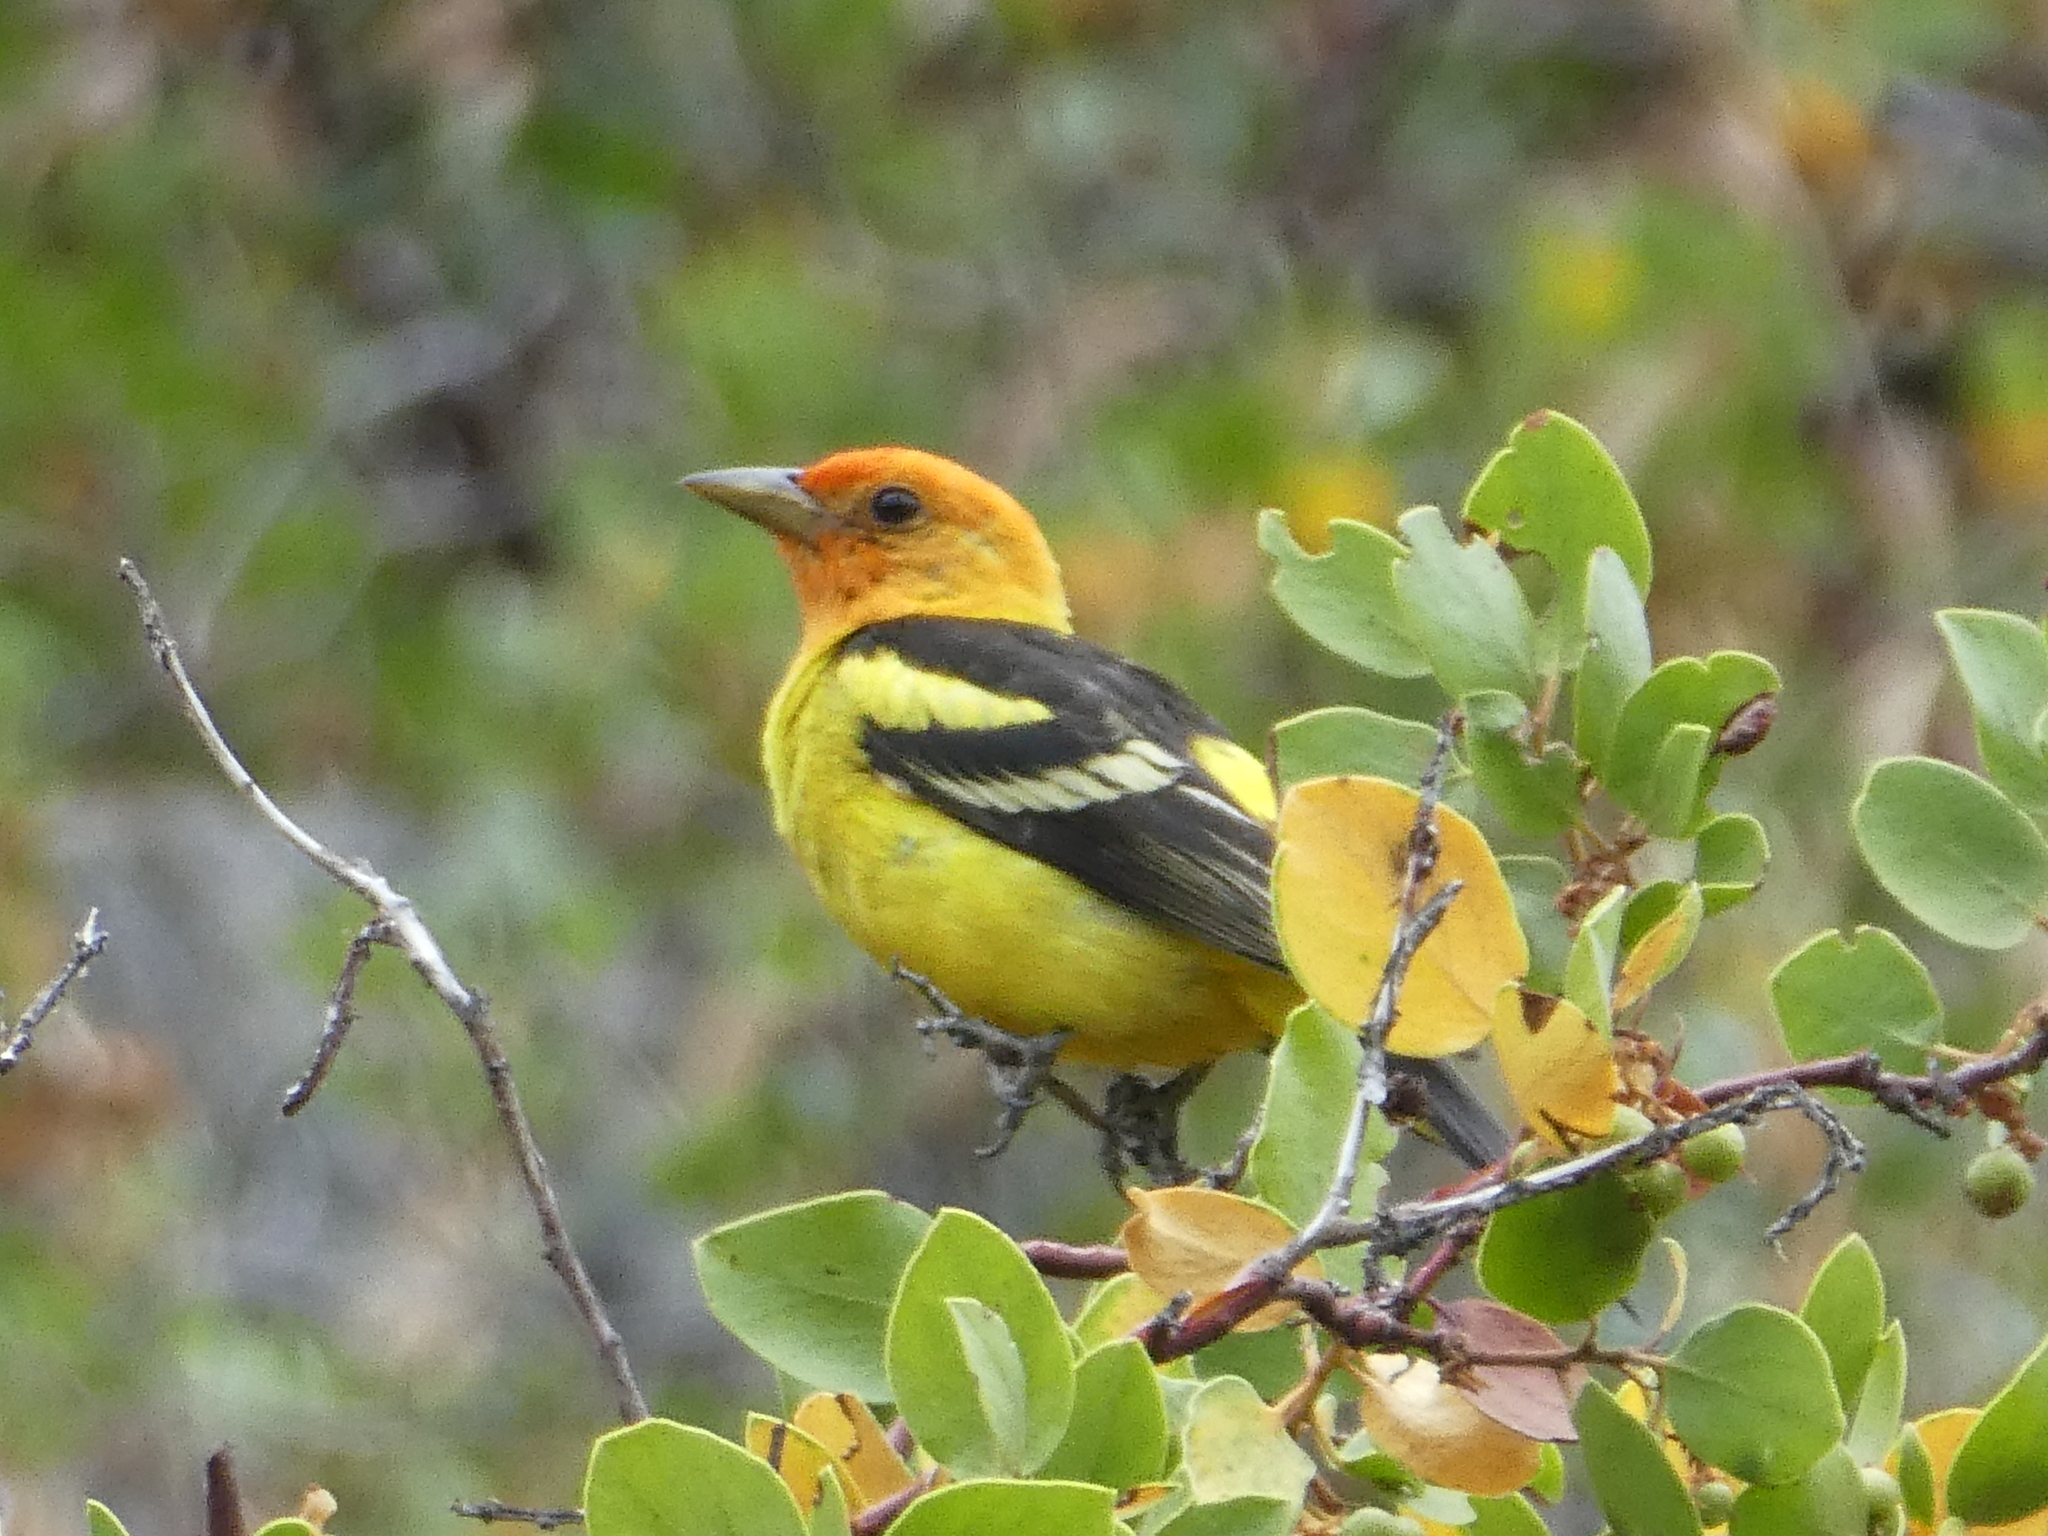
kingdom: Animalia
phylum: Chordata
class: Aves
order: Passeriformes
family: Cardinalidae
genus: Piranga
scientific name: Piranga ludoviciana
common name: Western tanager
